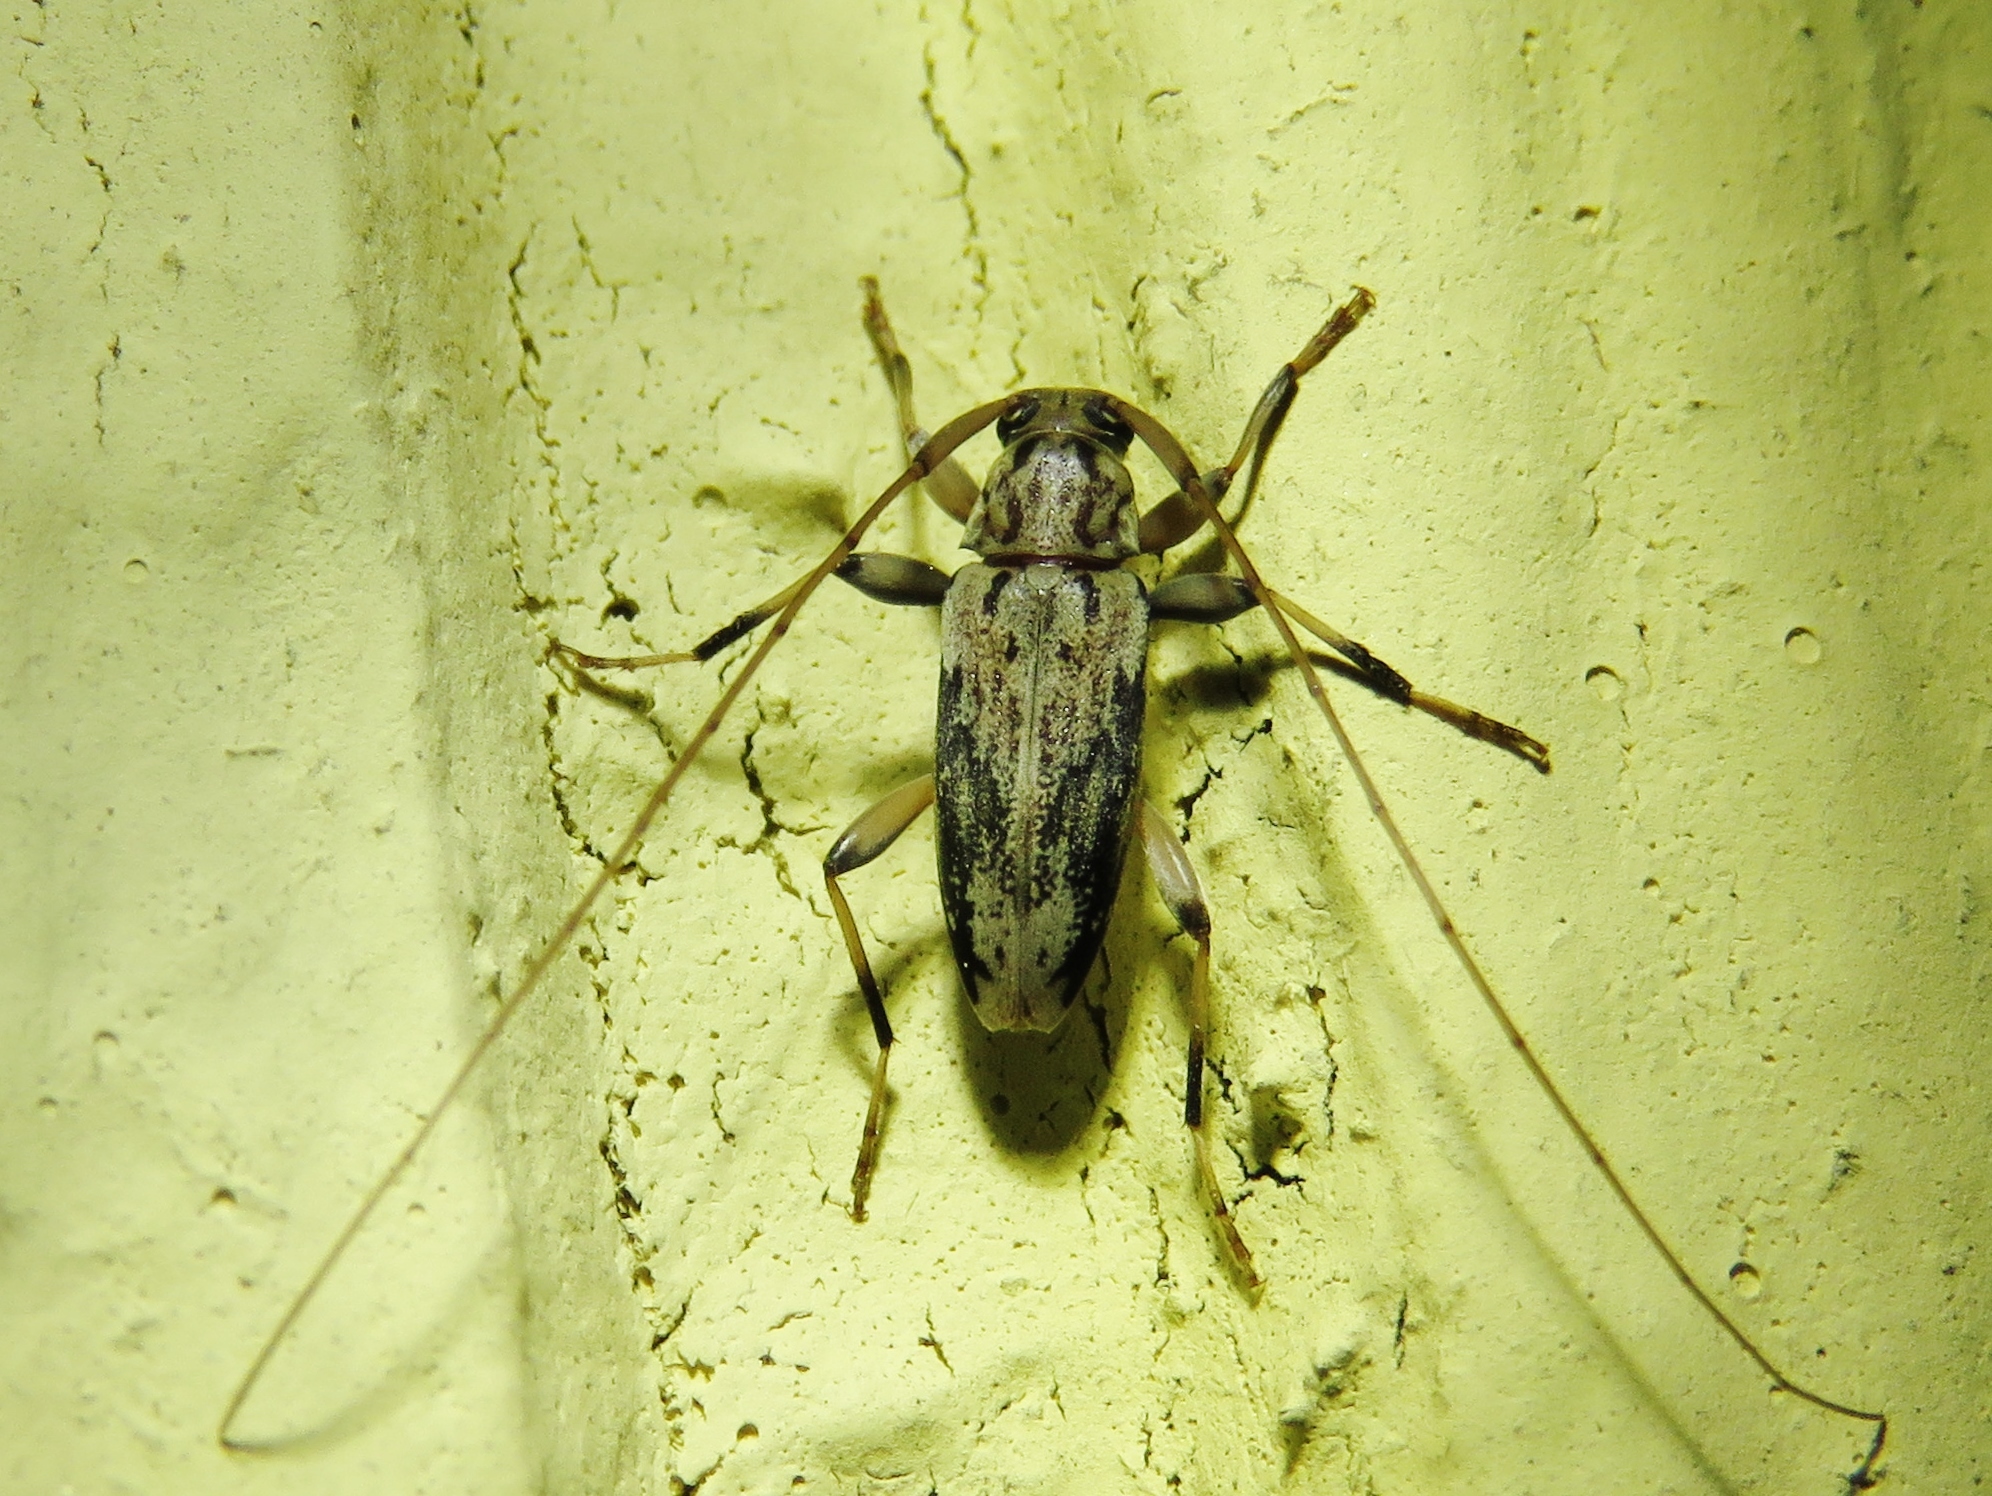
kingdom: Animalia
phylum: Arthropoda
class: Insecta
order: Coleoptera
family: Cerambycidae
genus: Lepturges
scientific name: Lepturges angulatus
